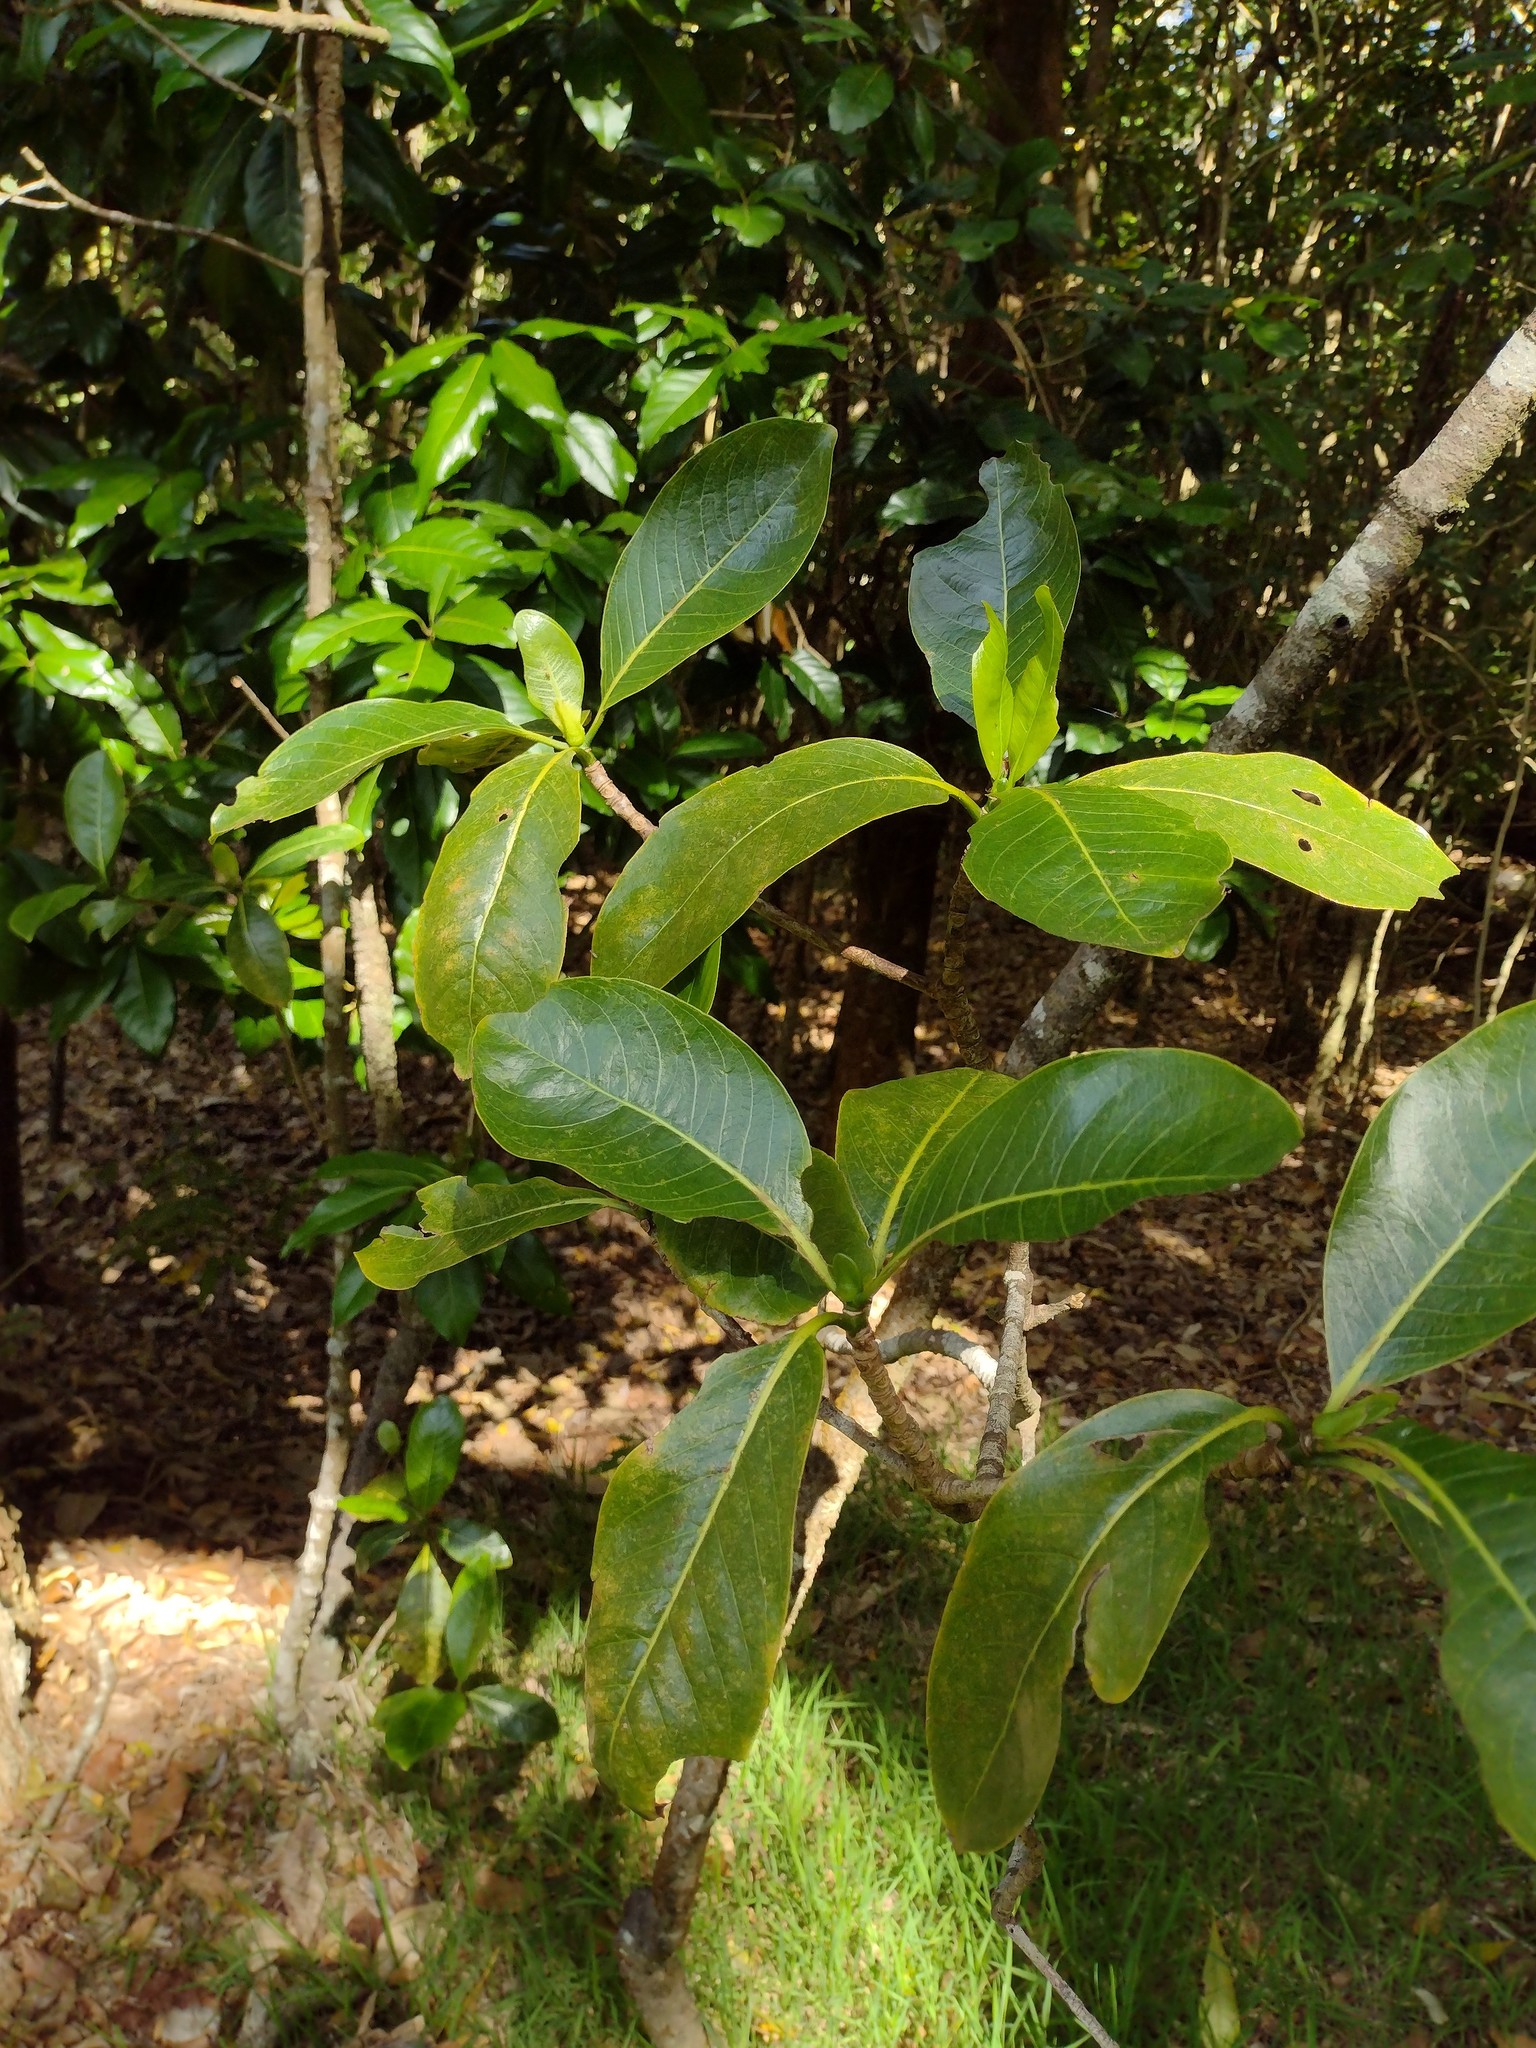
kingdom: Plantae
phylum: Tracheophyta
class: Magnoliopsida
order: Gentianales
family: Rubiaceae
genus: Psychotria
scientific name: Psychotria hawaiiensis
